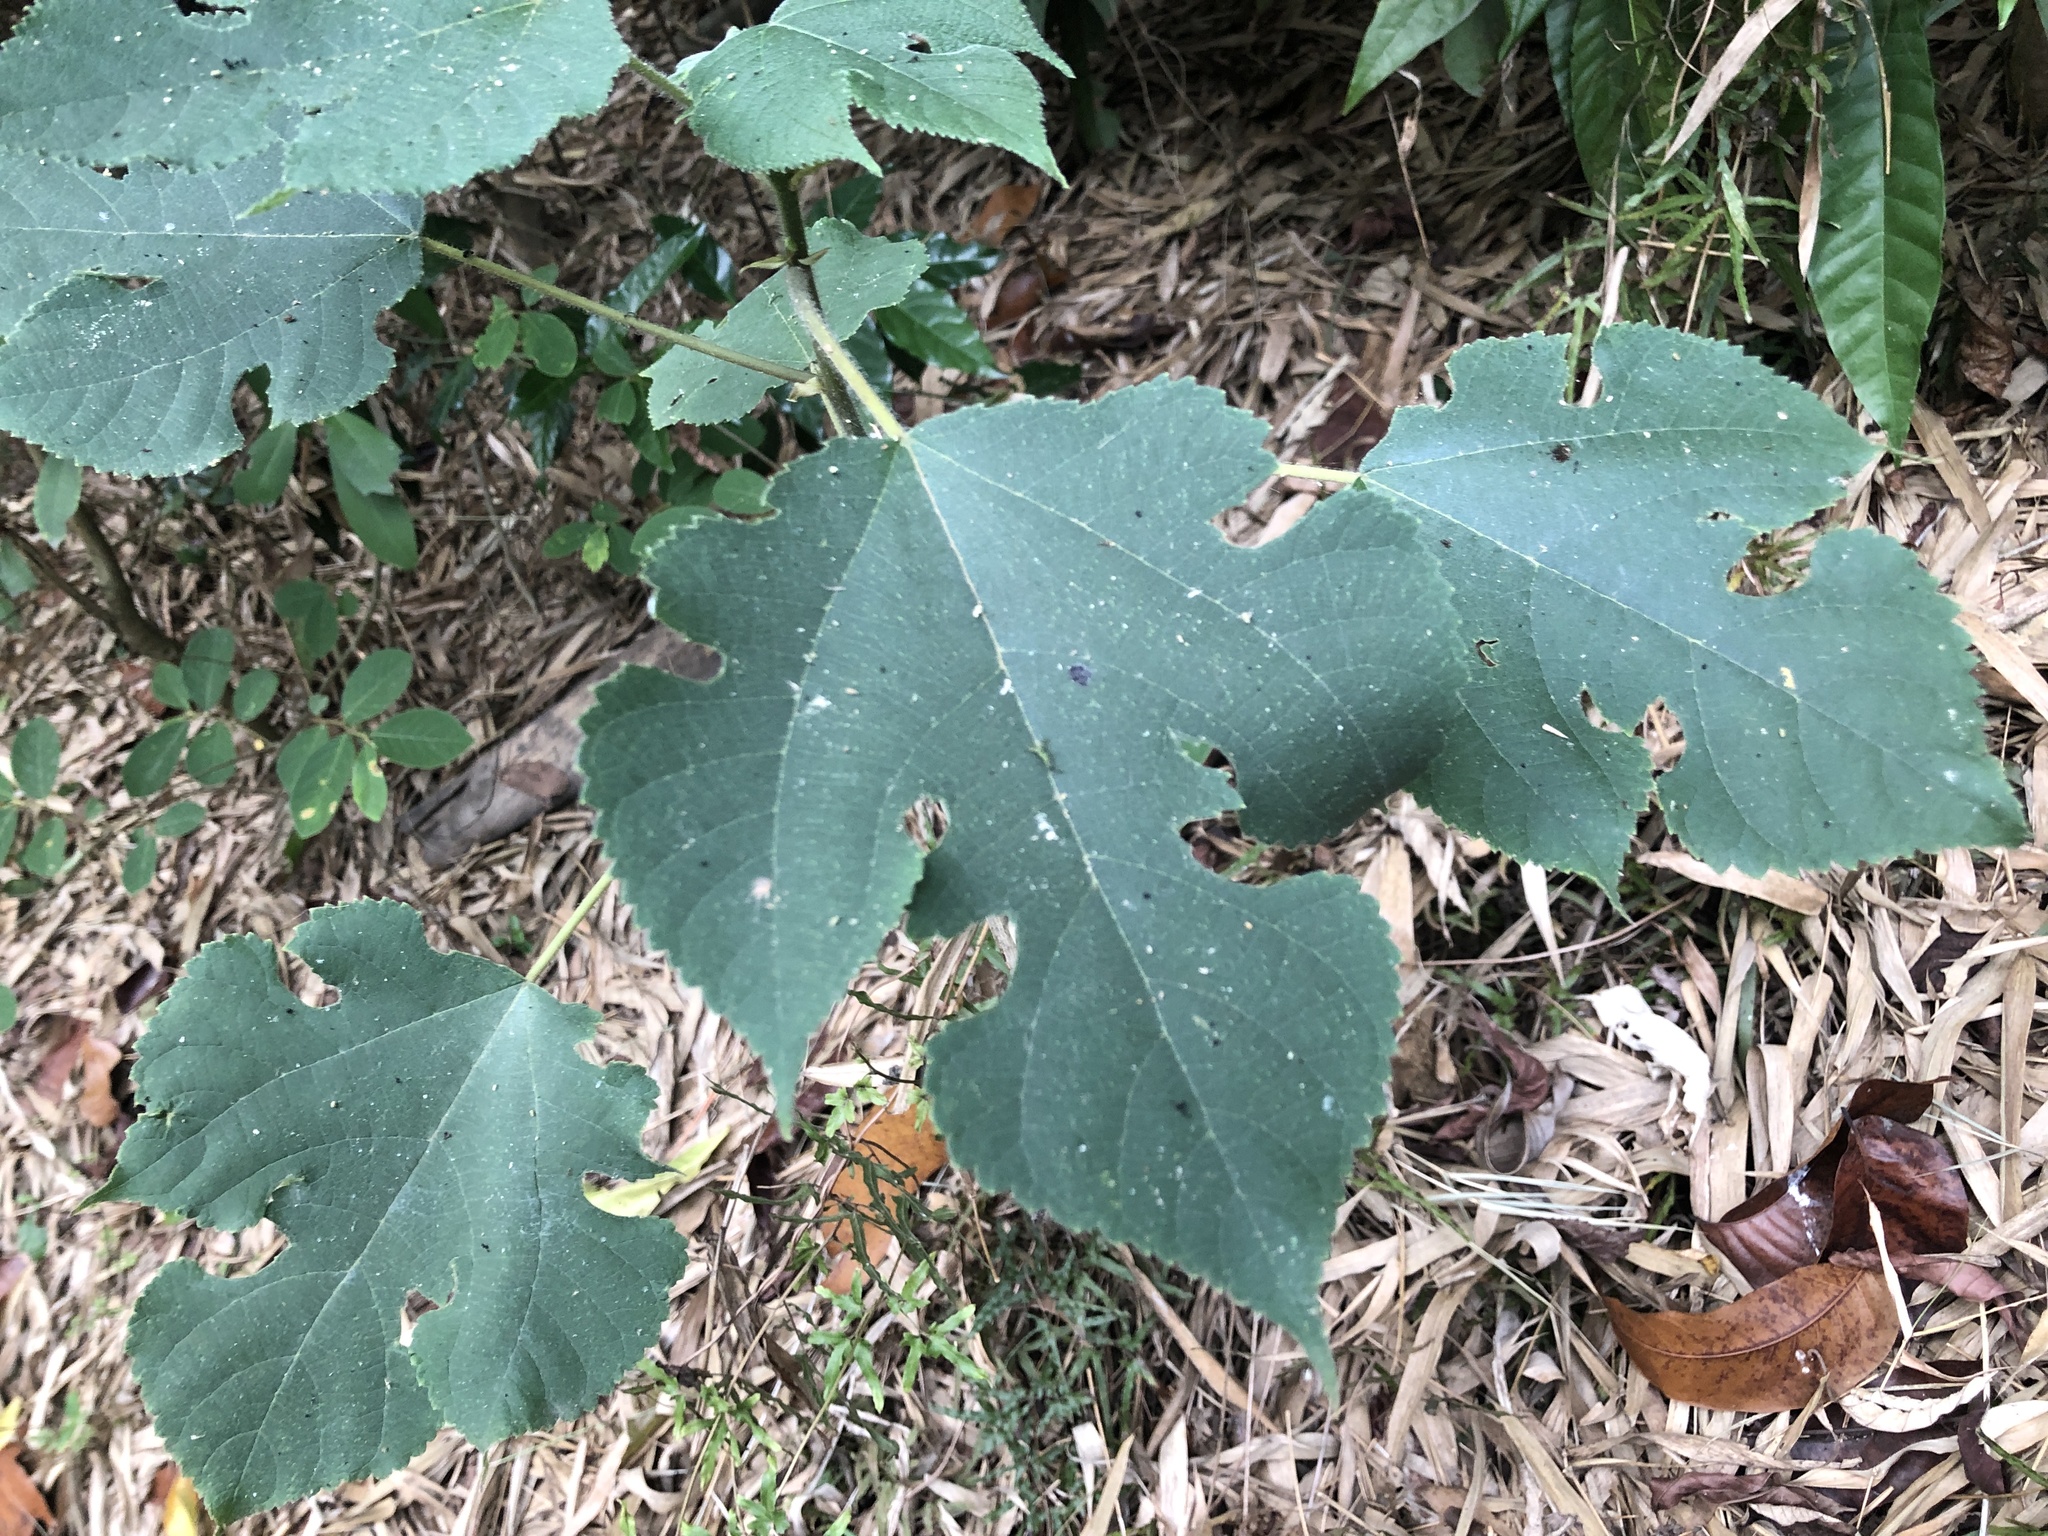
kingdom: Plantae
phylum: Tracheophyta
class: Magnoliopsida
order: Rosales
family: Moraceae
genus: Broussonetia
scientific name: Broussonetia papyrifera
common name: Paper mulberry
